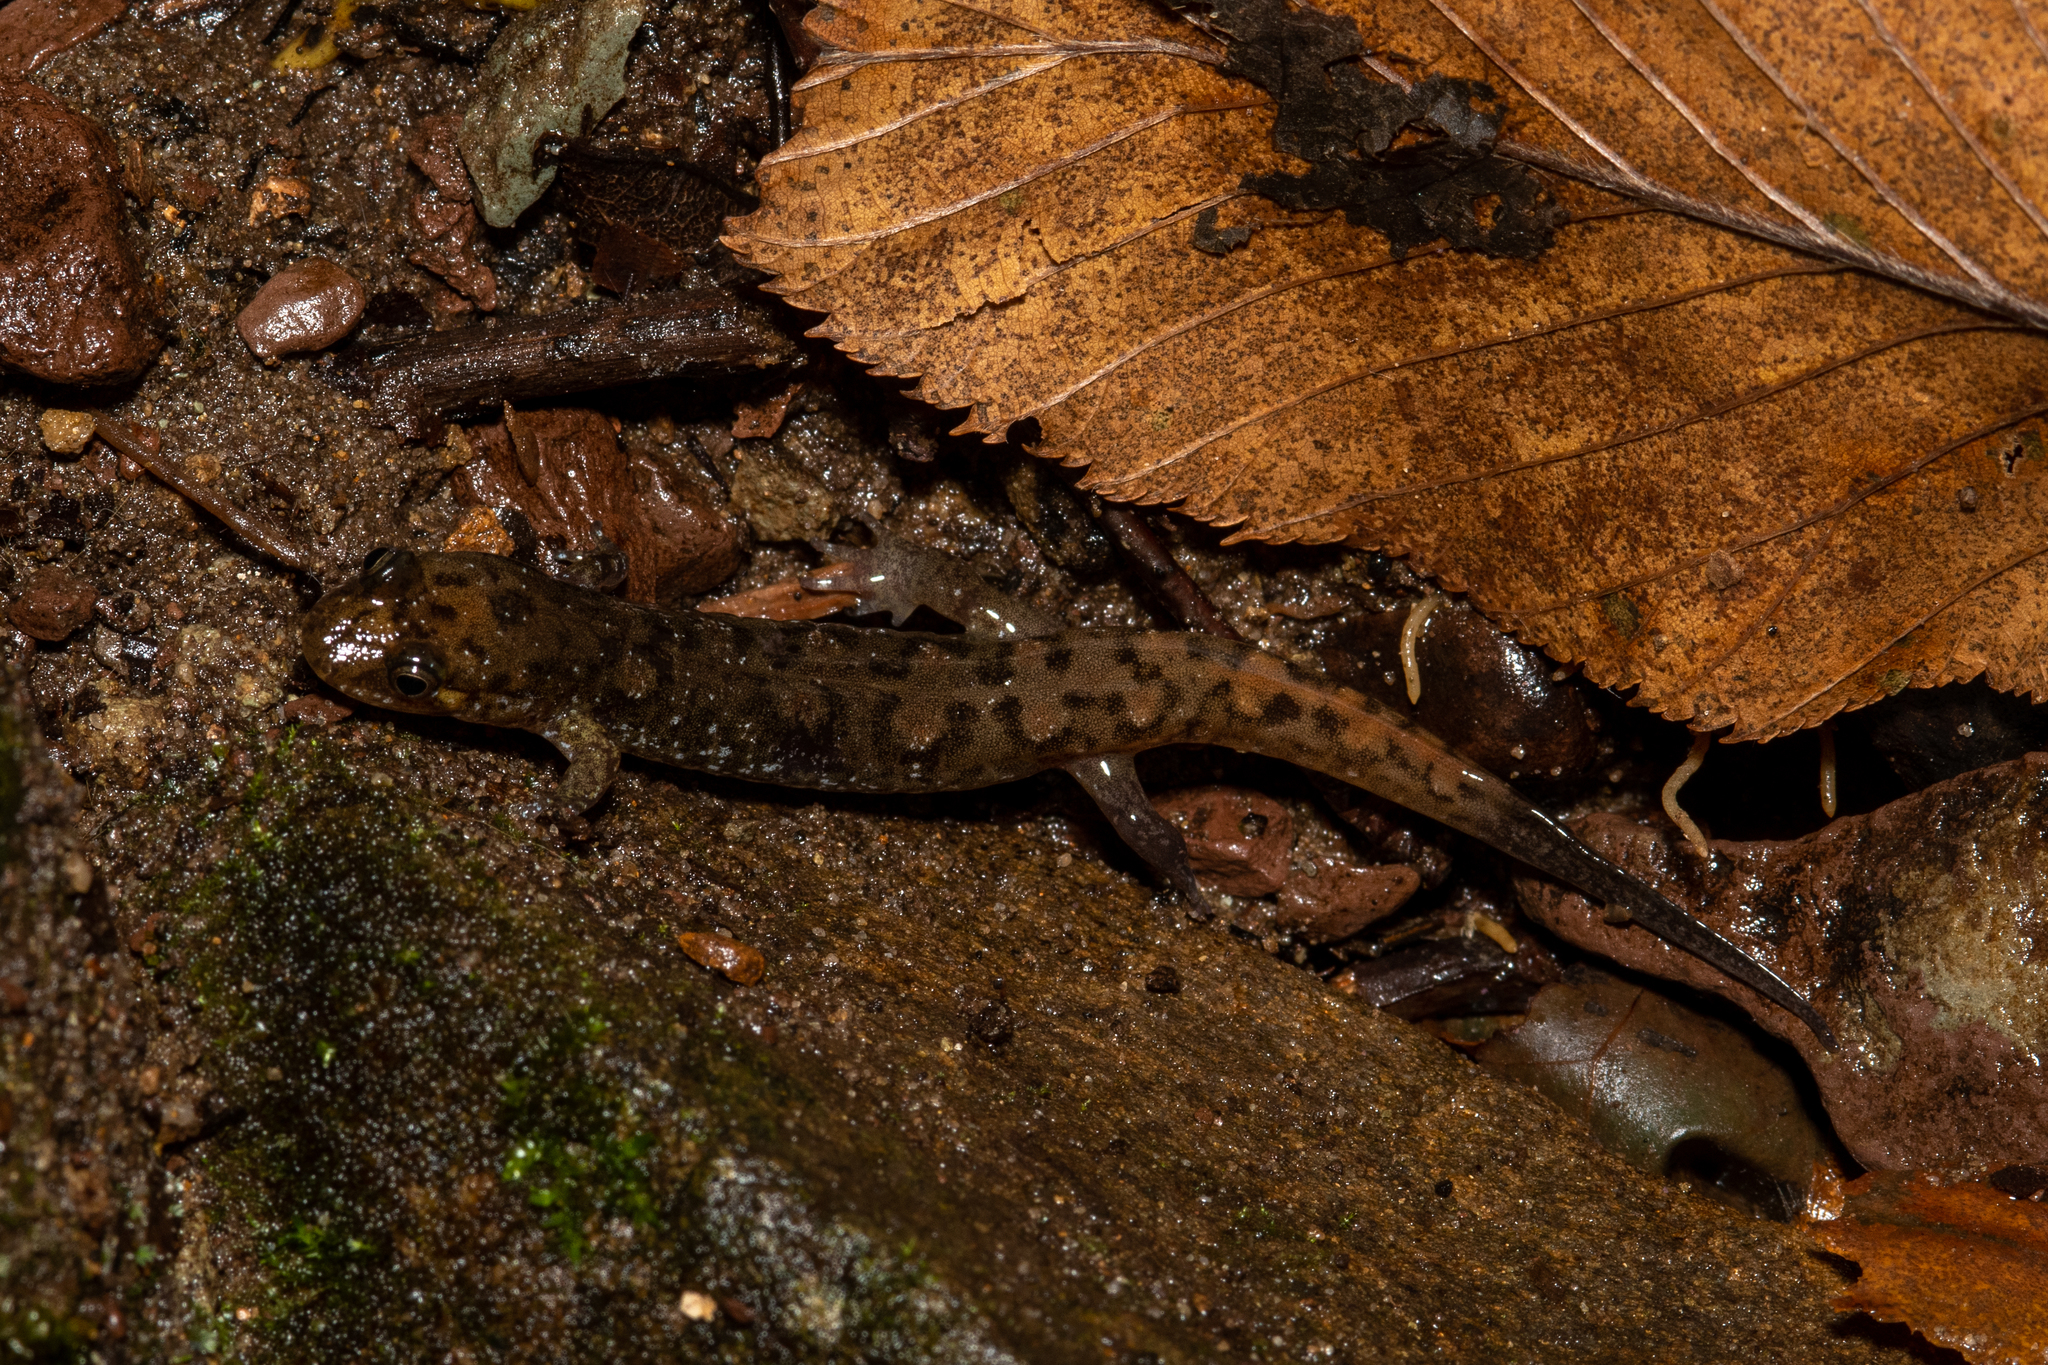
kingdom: Animalia
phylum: Chordata
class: Amphibia
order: Caudata
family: Plethodontidae
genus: Desmognathus
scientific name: Desmognathus monticola
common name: Seal salamander
